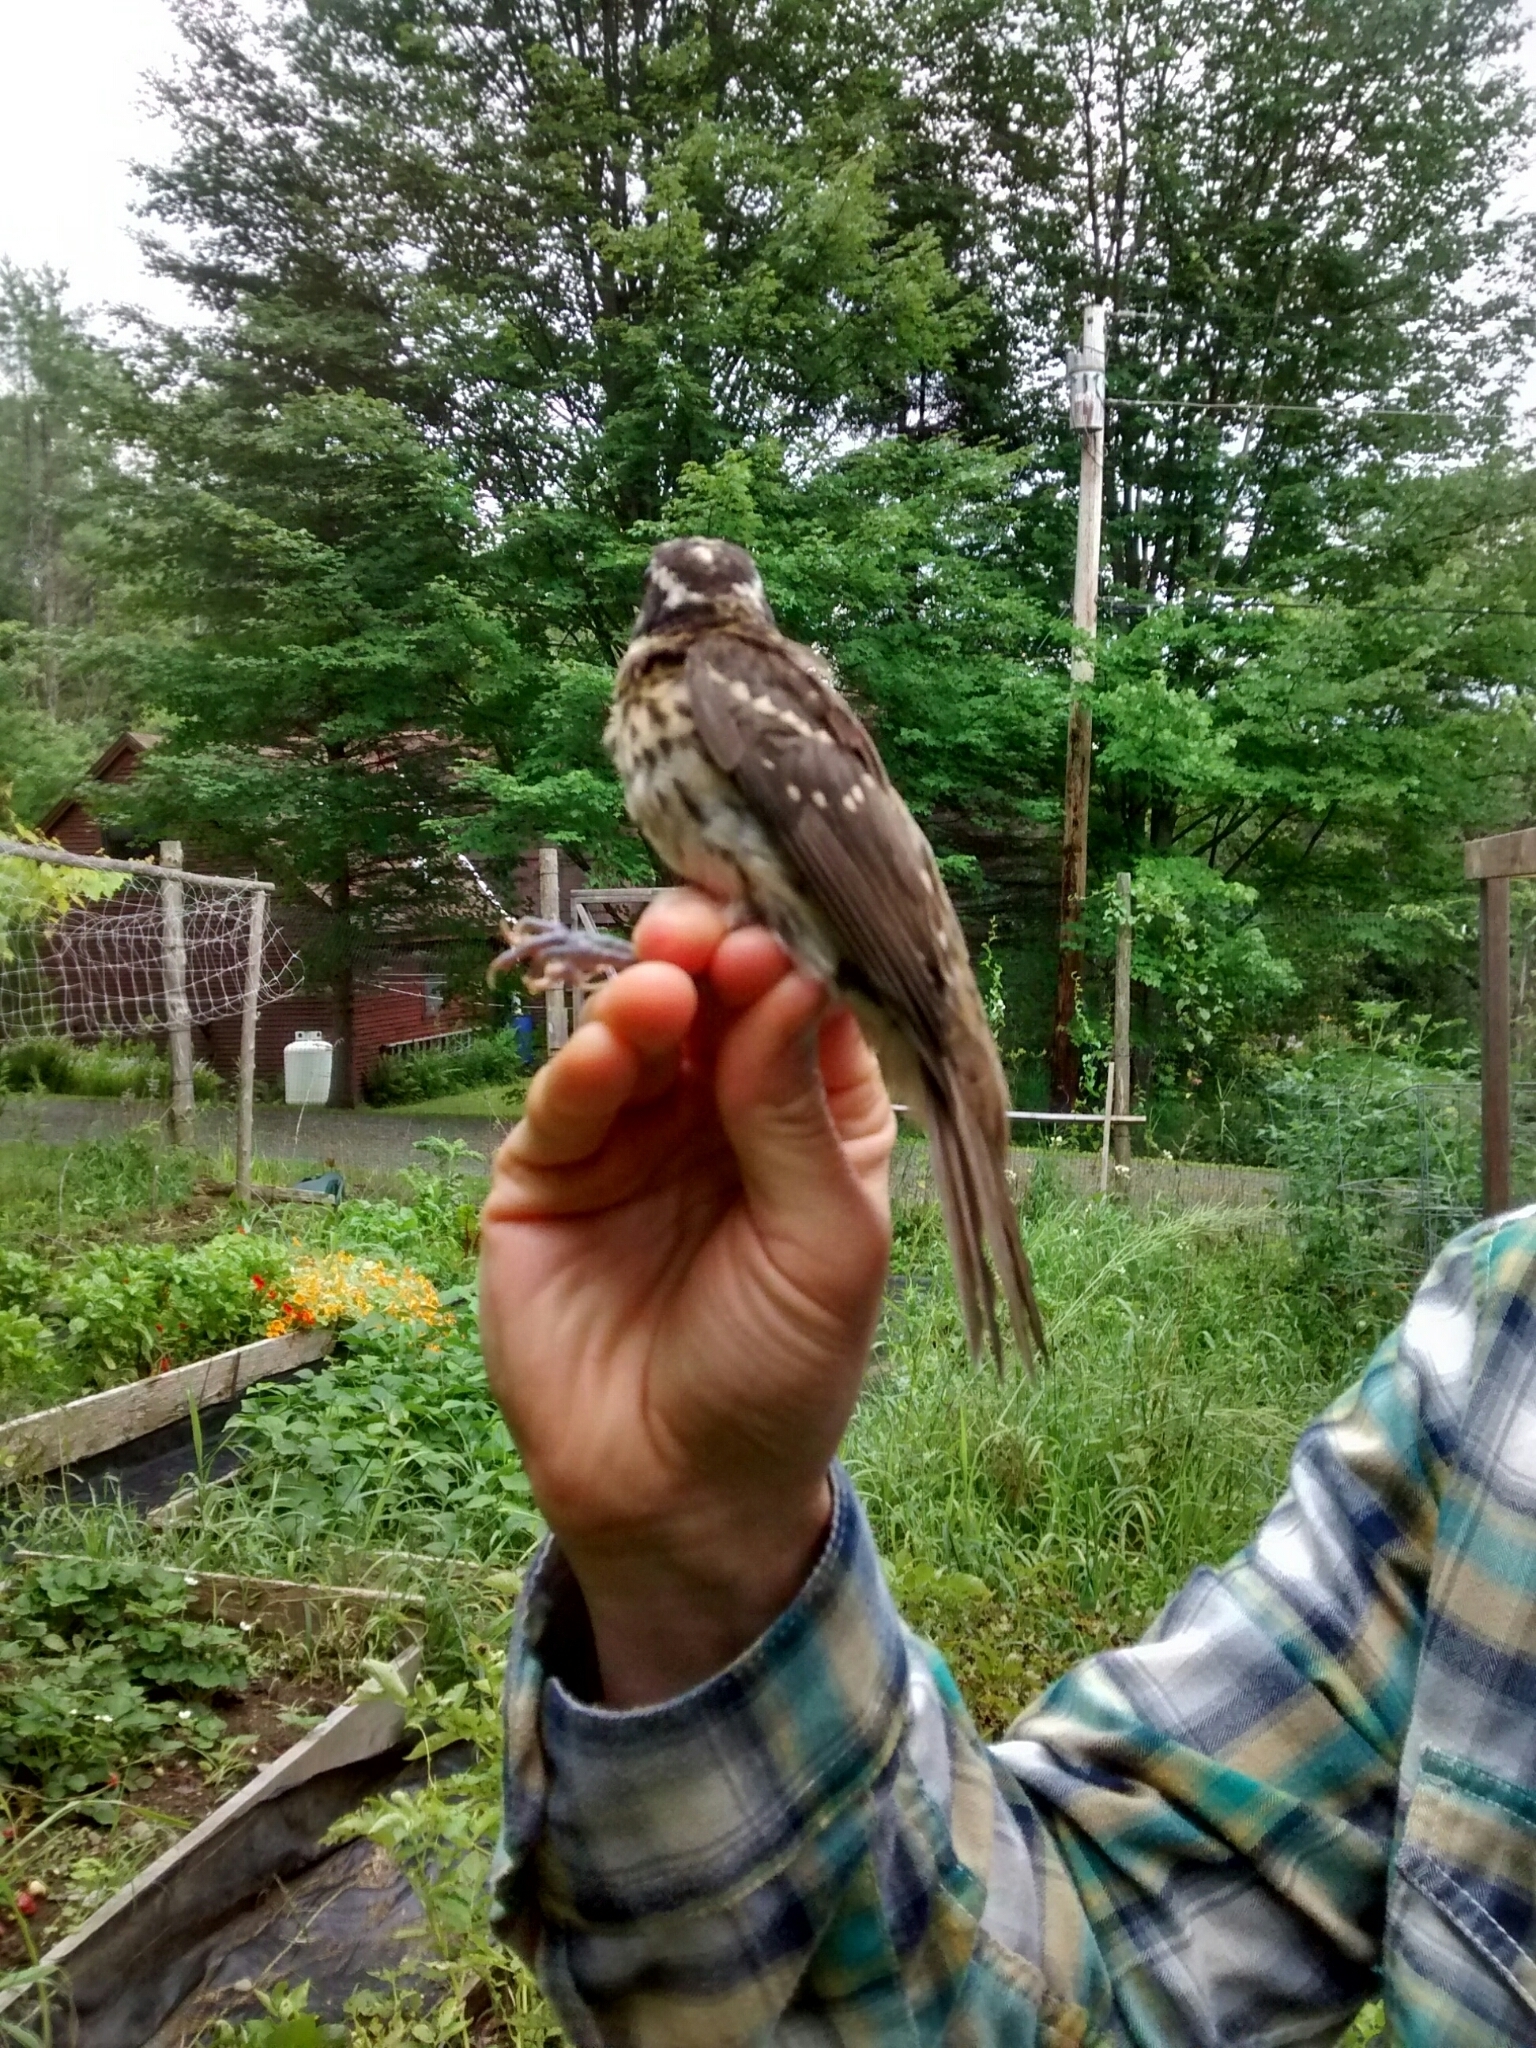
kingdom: Animalia
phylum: Chordata
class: Aves
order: Passeriformes
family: Cardinalidae
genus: Pheucticus
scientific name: Pheucticus ludovicianus
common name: Rose-breasted grosbeak
